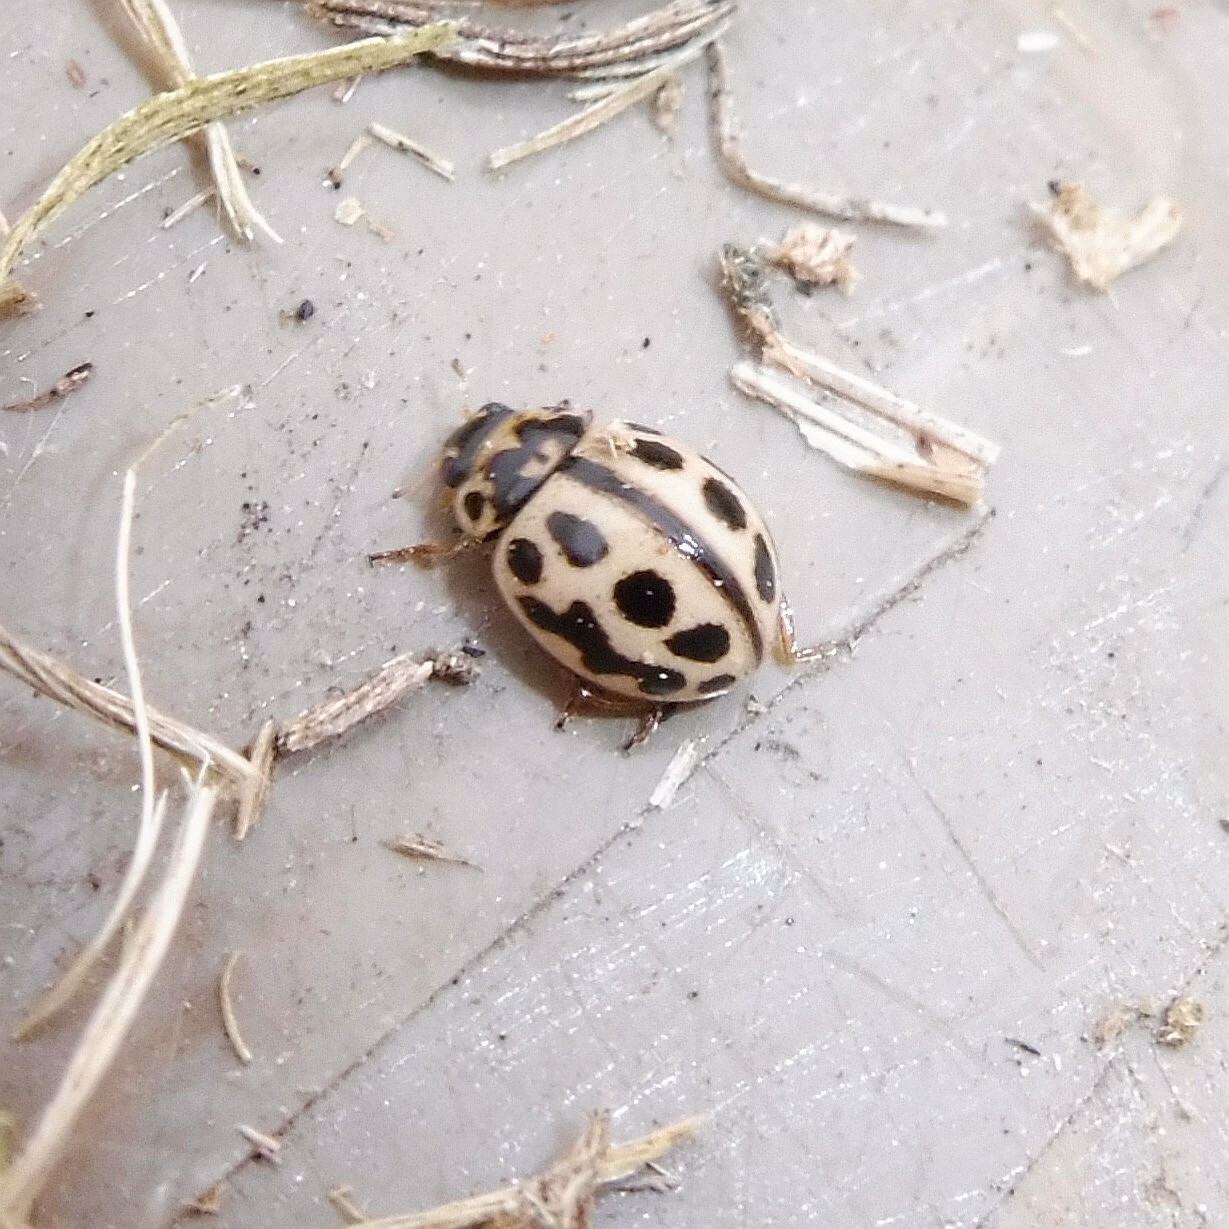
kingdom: Animalia
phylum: Arthropoda
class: Insecta
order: Coleoptera
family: Coccinellidae
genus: Tytthaspis
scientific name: Tytthaspis sedecimpunctata
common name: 16-spot ladybird
